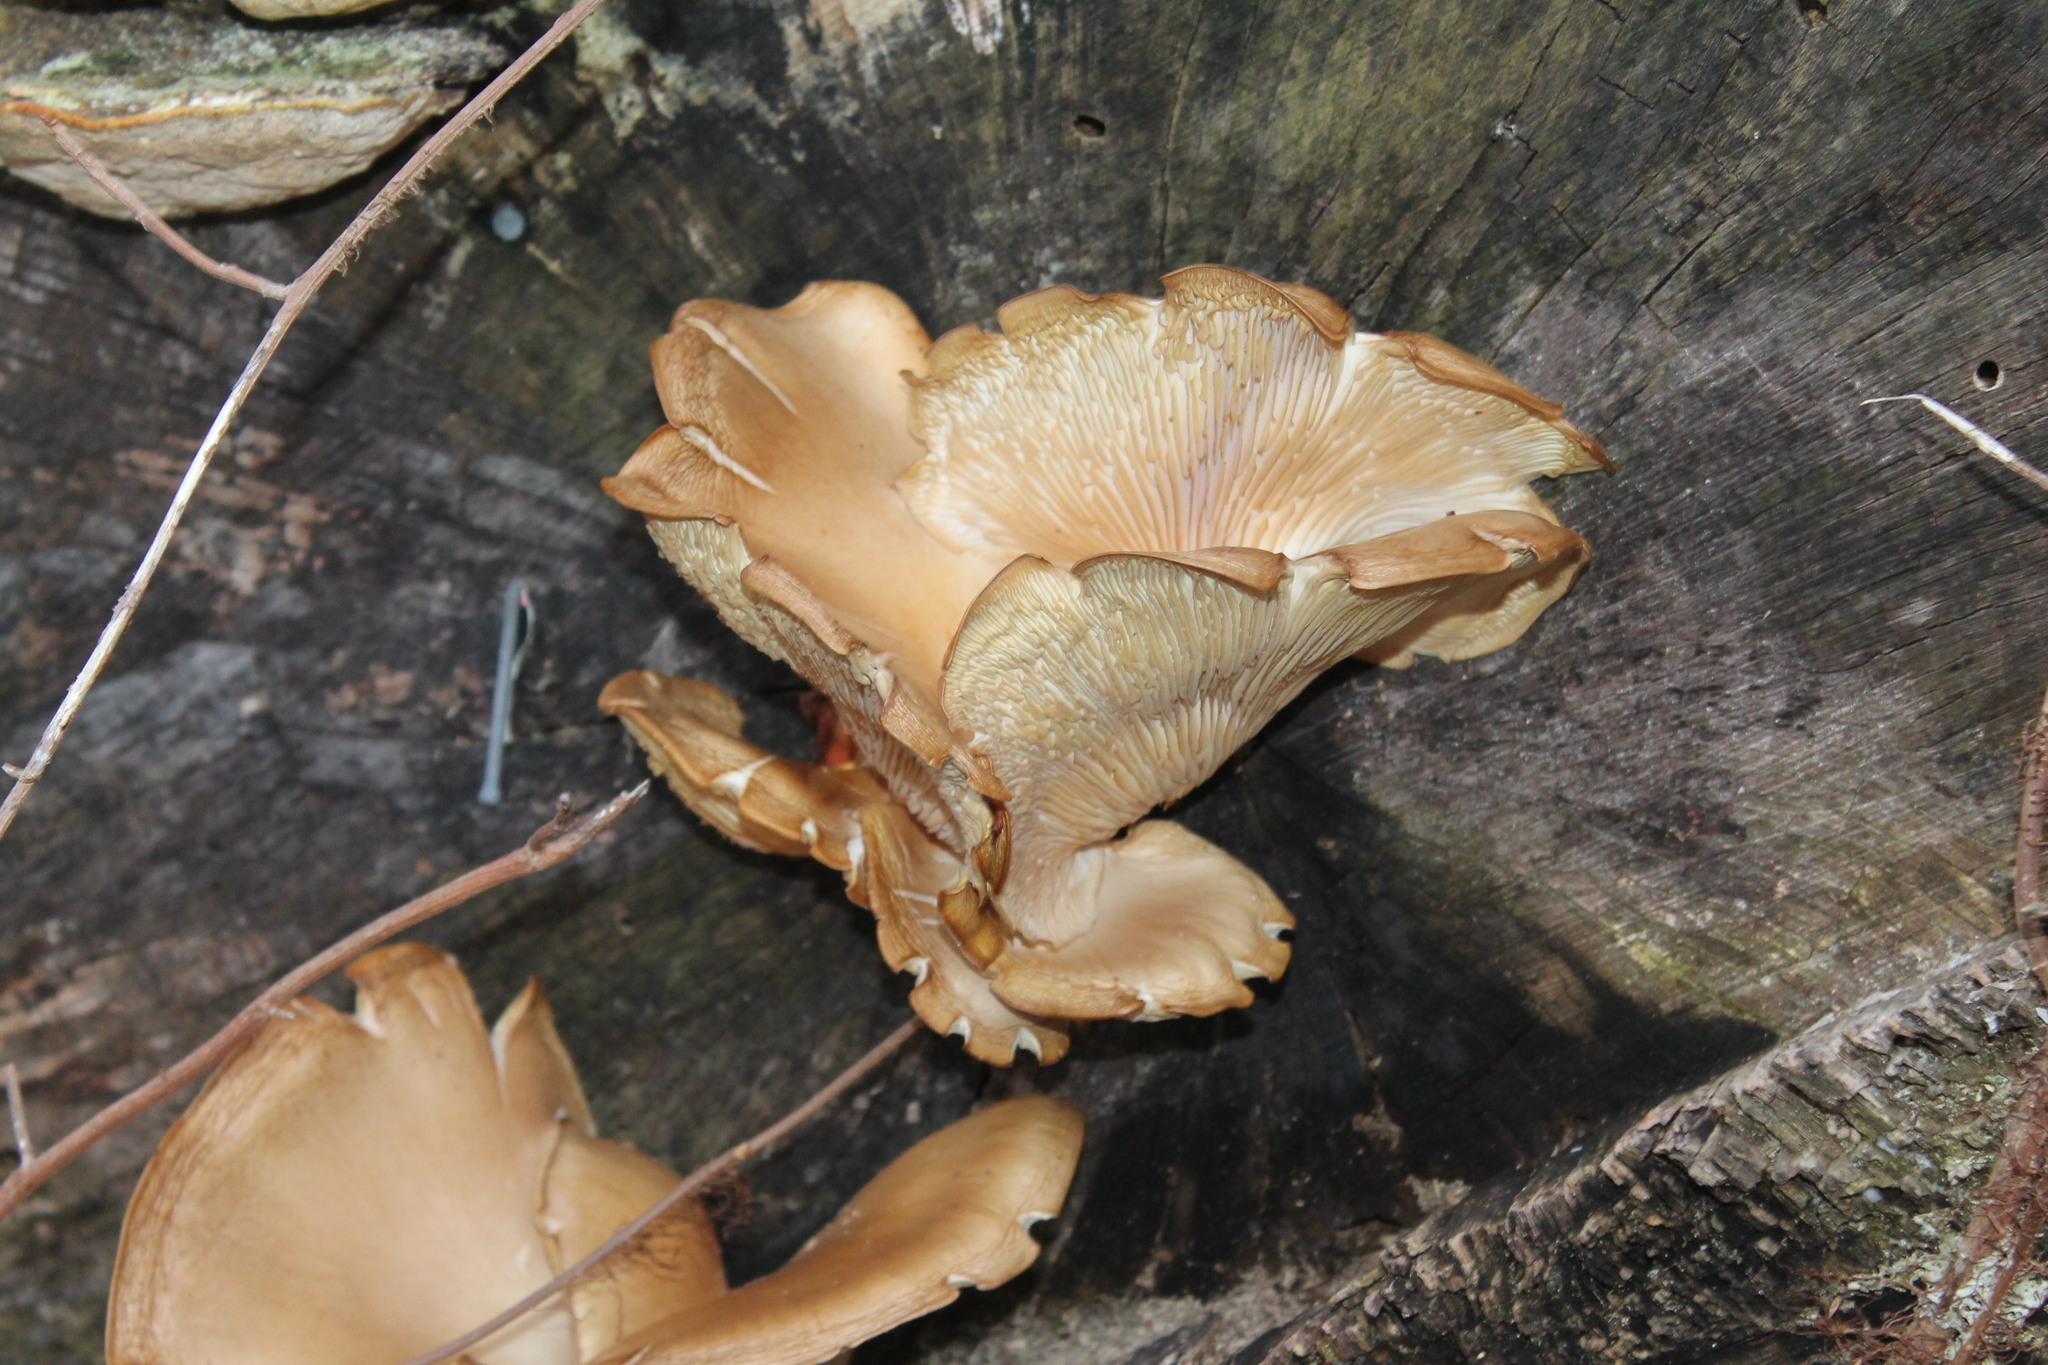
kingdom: Fungi
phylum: Basidiomycota
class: Agaricomycetes
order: Agaricales
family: Pleurotaceae
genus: Pleurotus
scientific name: Pleurotus ostreatus
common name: Oyster mushroom
